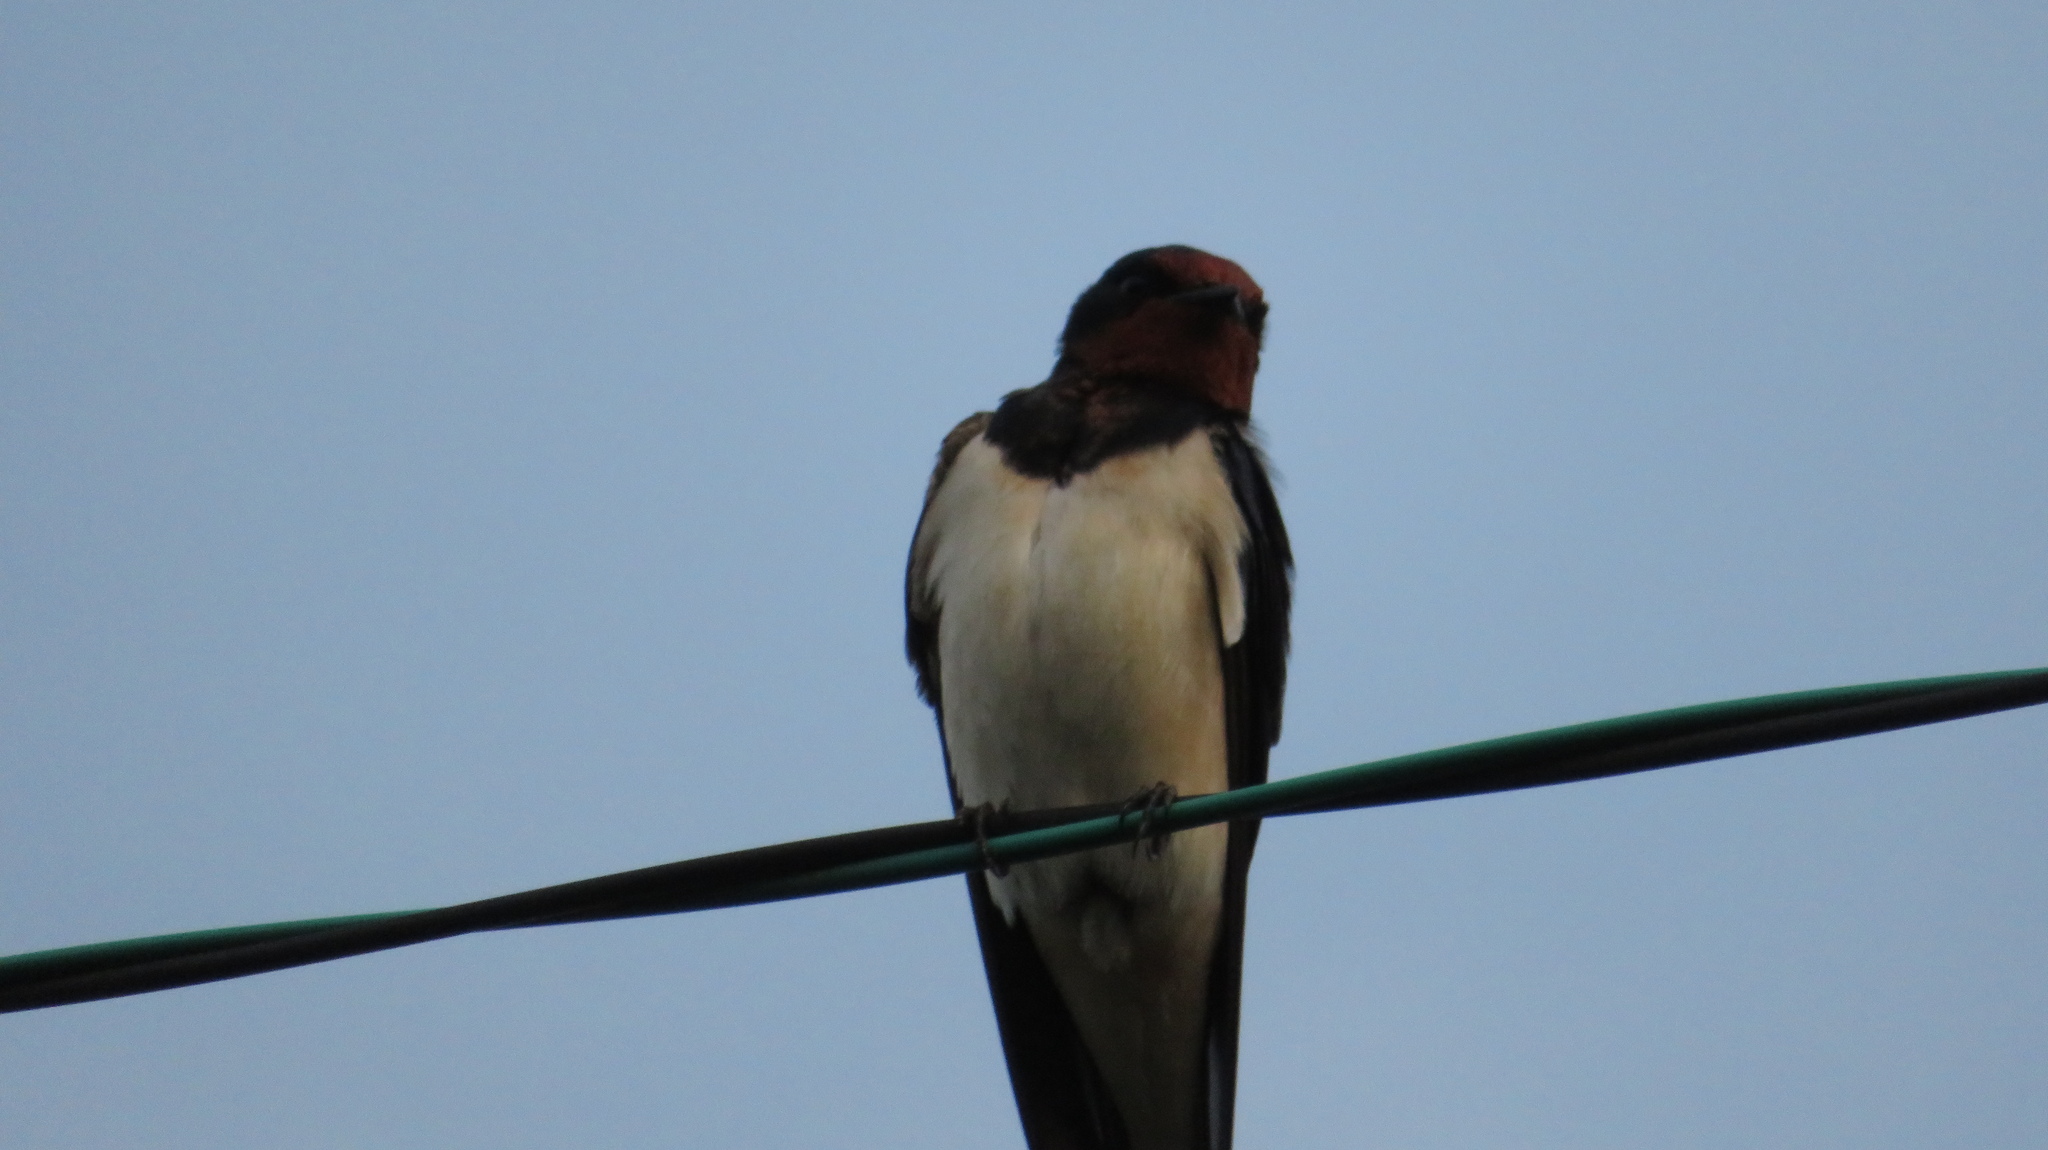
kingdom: Animalia
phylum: Chordata
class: Aves
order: Passeriformes
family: Hirundinidae
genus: Hirundo
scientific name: Hirundo rustica
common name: Barn swallow
